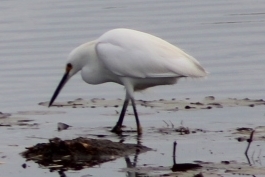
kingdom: Animalia
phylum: Chordata
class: Aves
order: Pelecaniformes
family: Ardeidae
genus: Egretta
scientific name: Egretta thula
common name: Snowy egret
